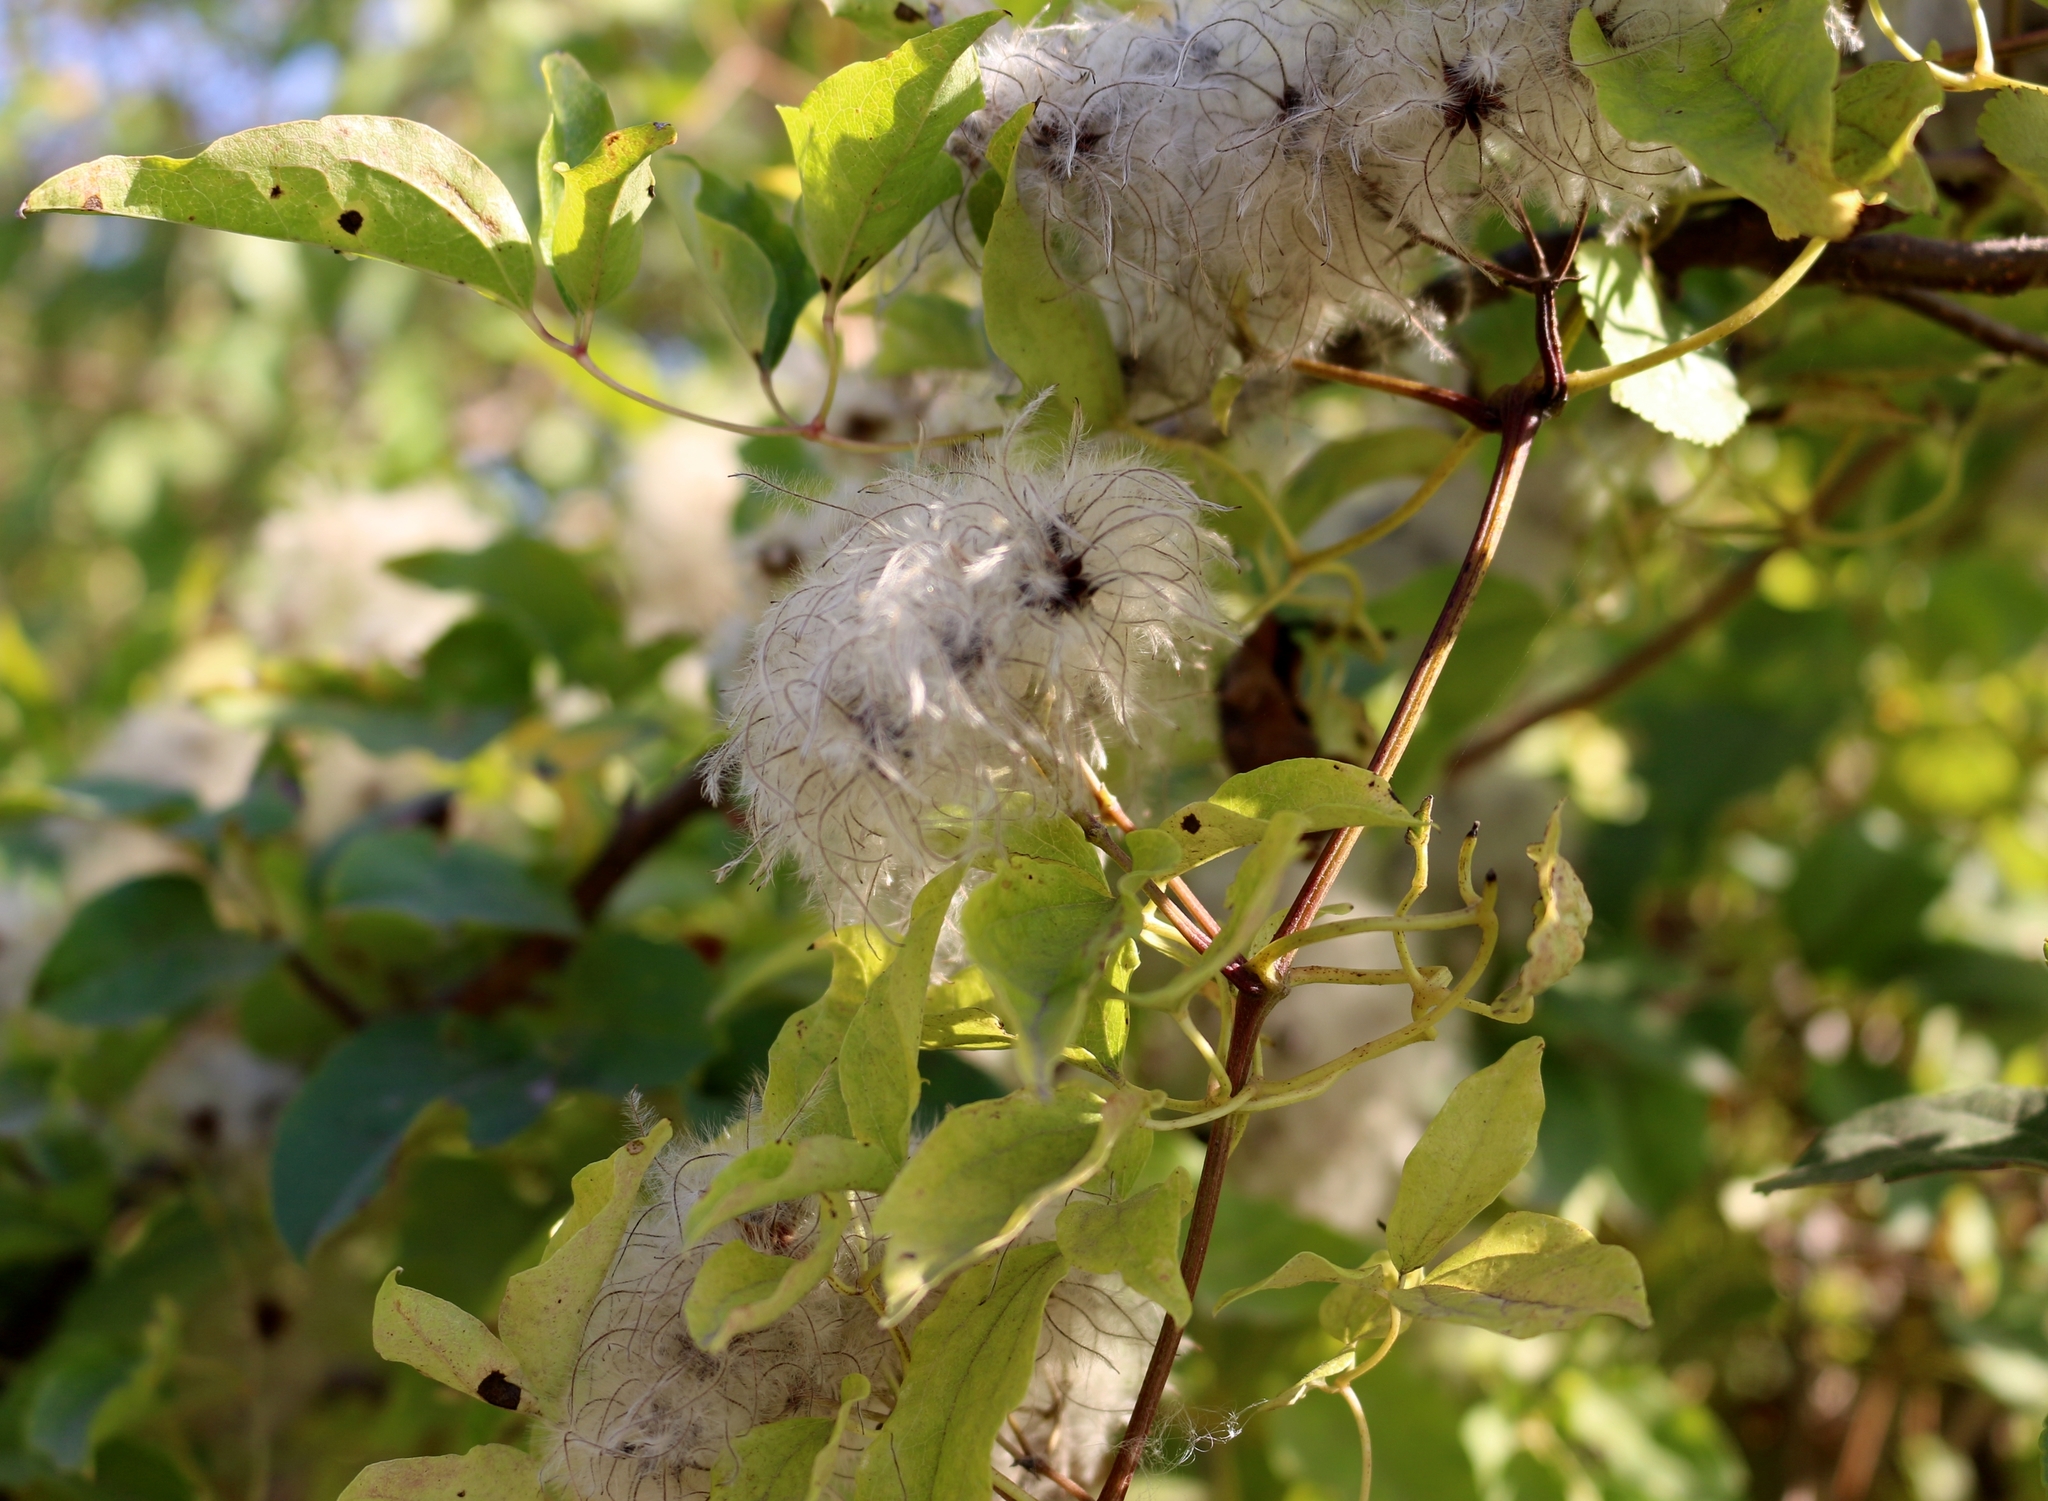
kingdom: Plantae
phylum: Tracheophyta
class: Magnoliopsida
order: Ranunculales
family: Ranunculaceae
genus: Clematis
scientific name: Clematis vitalba
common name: Evergreen clematis
